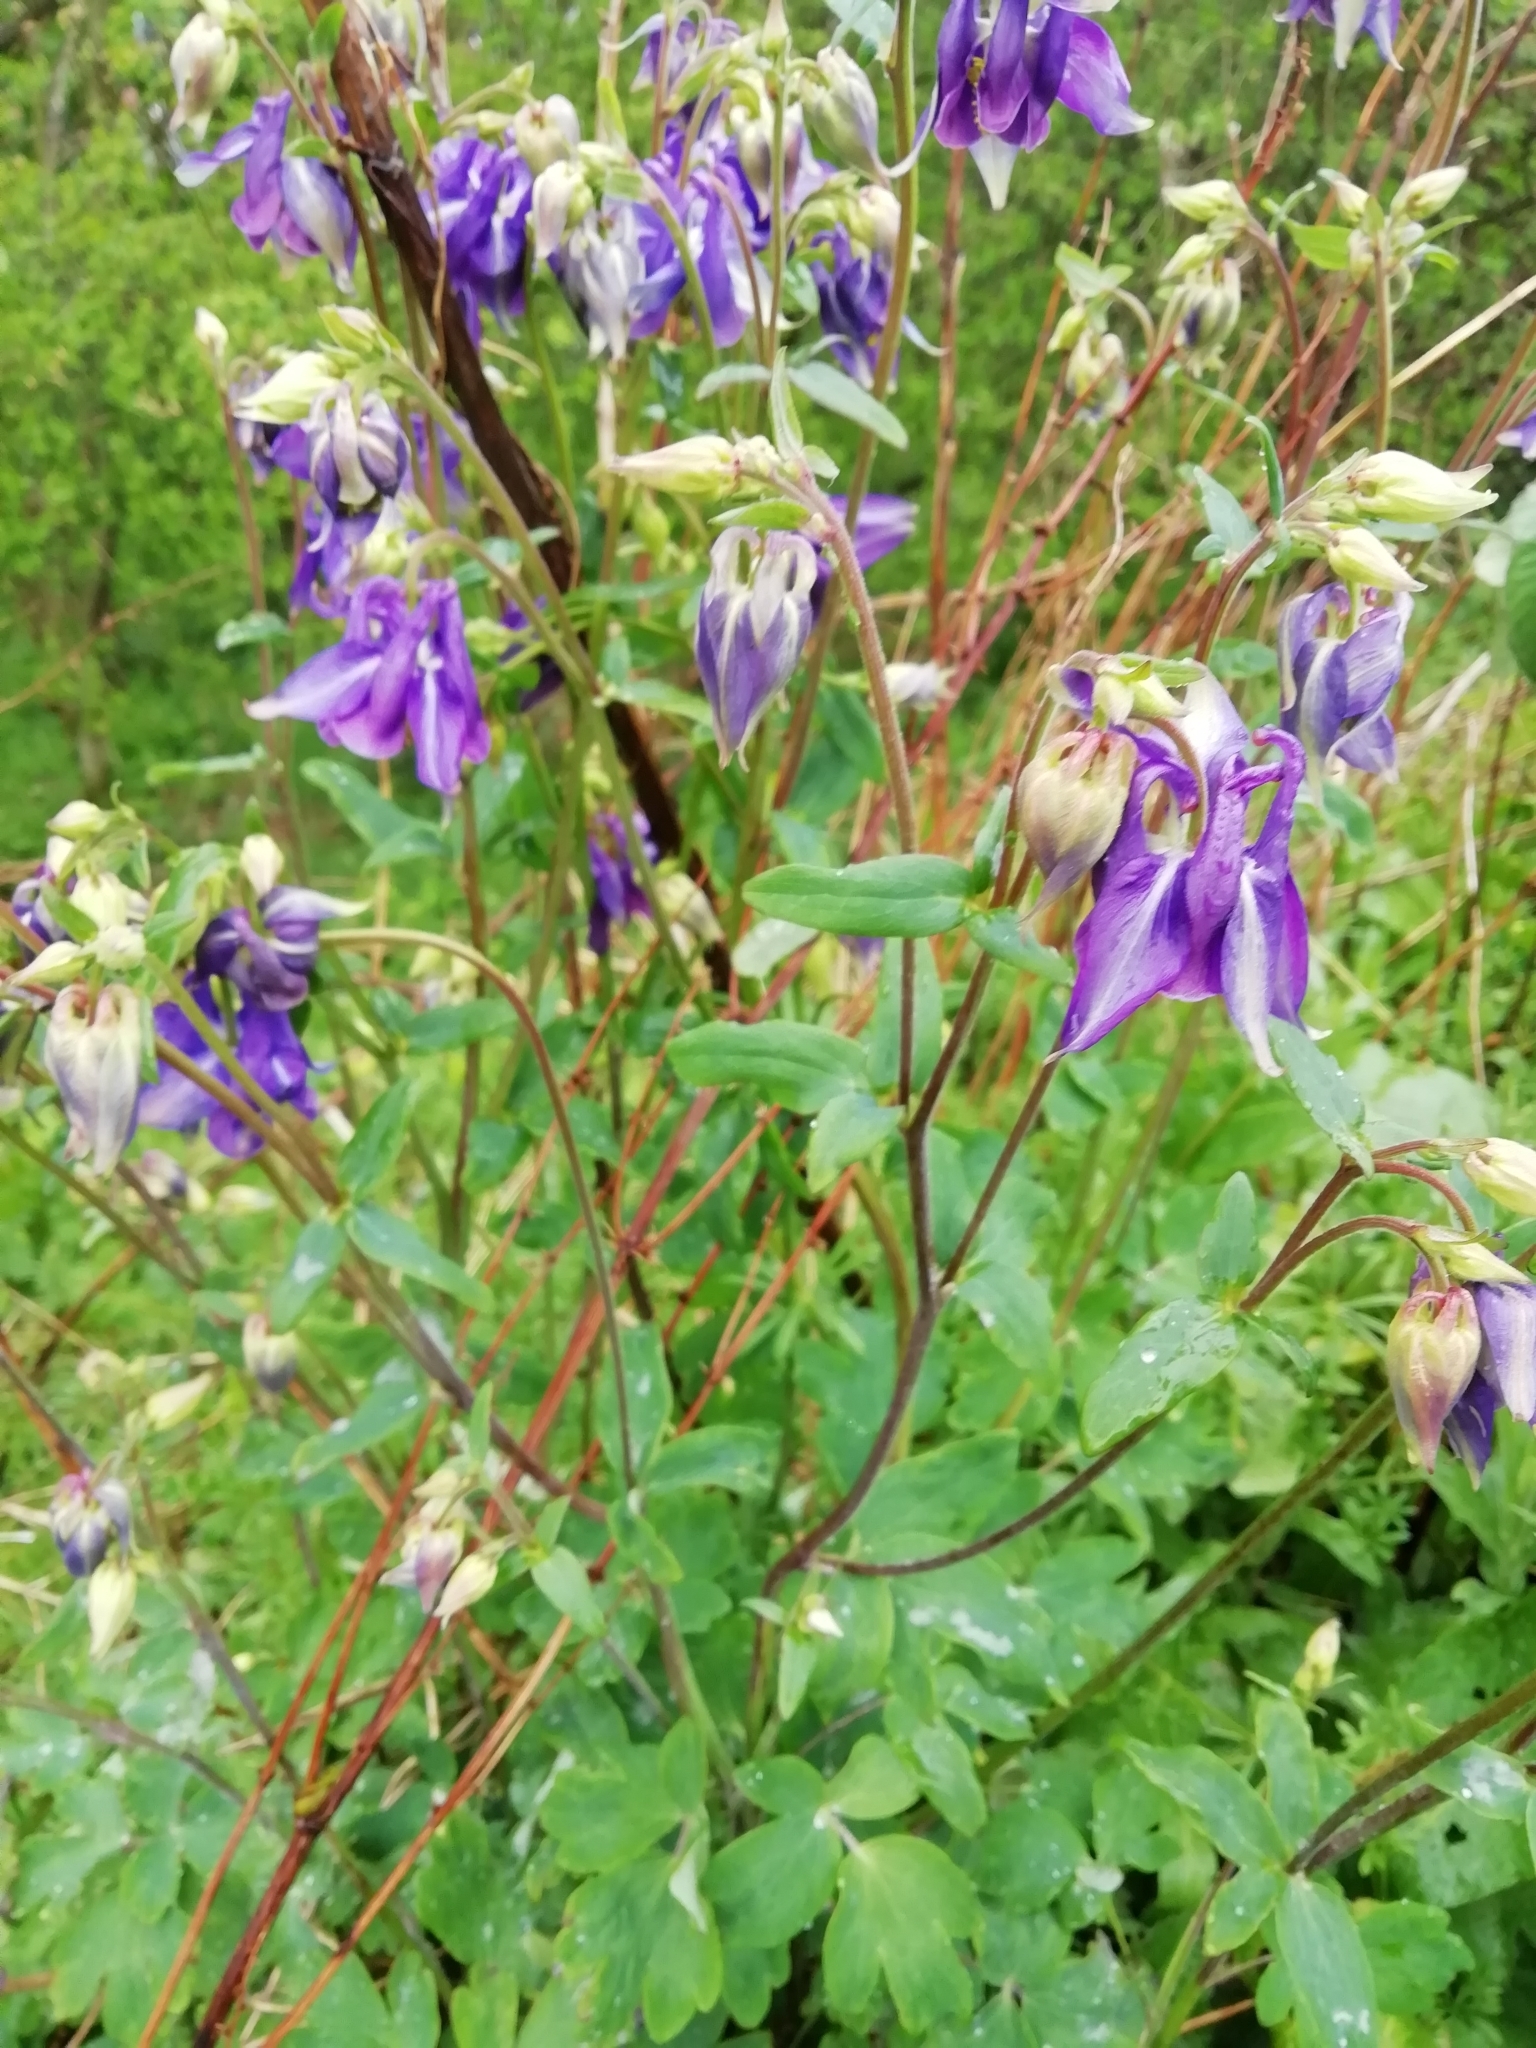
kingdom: Plantae
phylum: Tracheophyta
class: Magnoliopsida
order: Ranunculales
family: Ranunculaceae
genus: Aquilegia
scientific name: Aquilegia vulgaris
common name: Columbine
